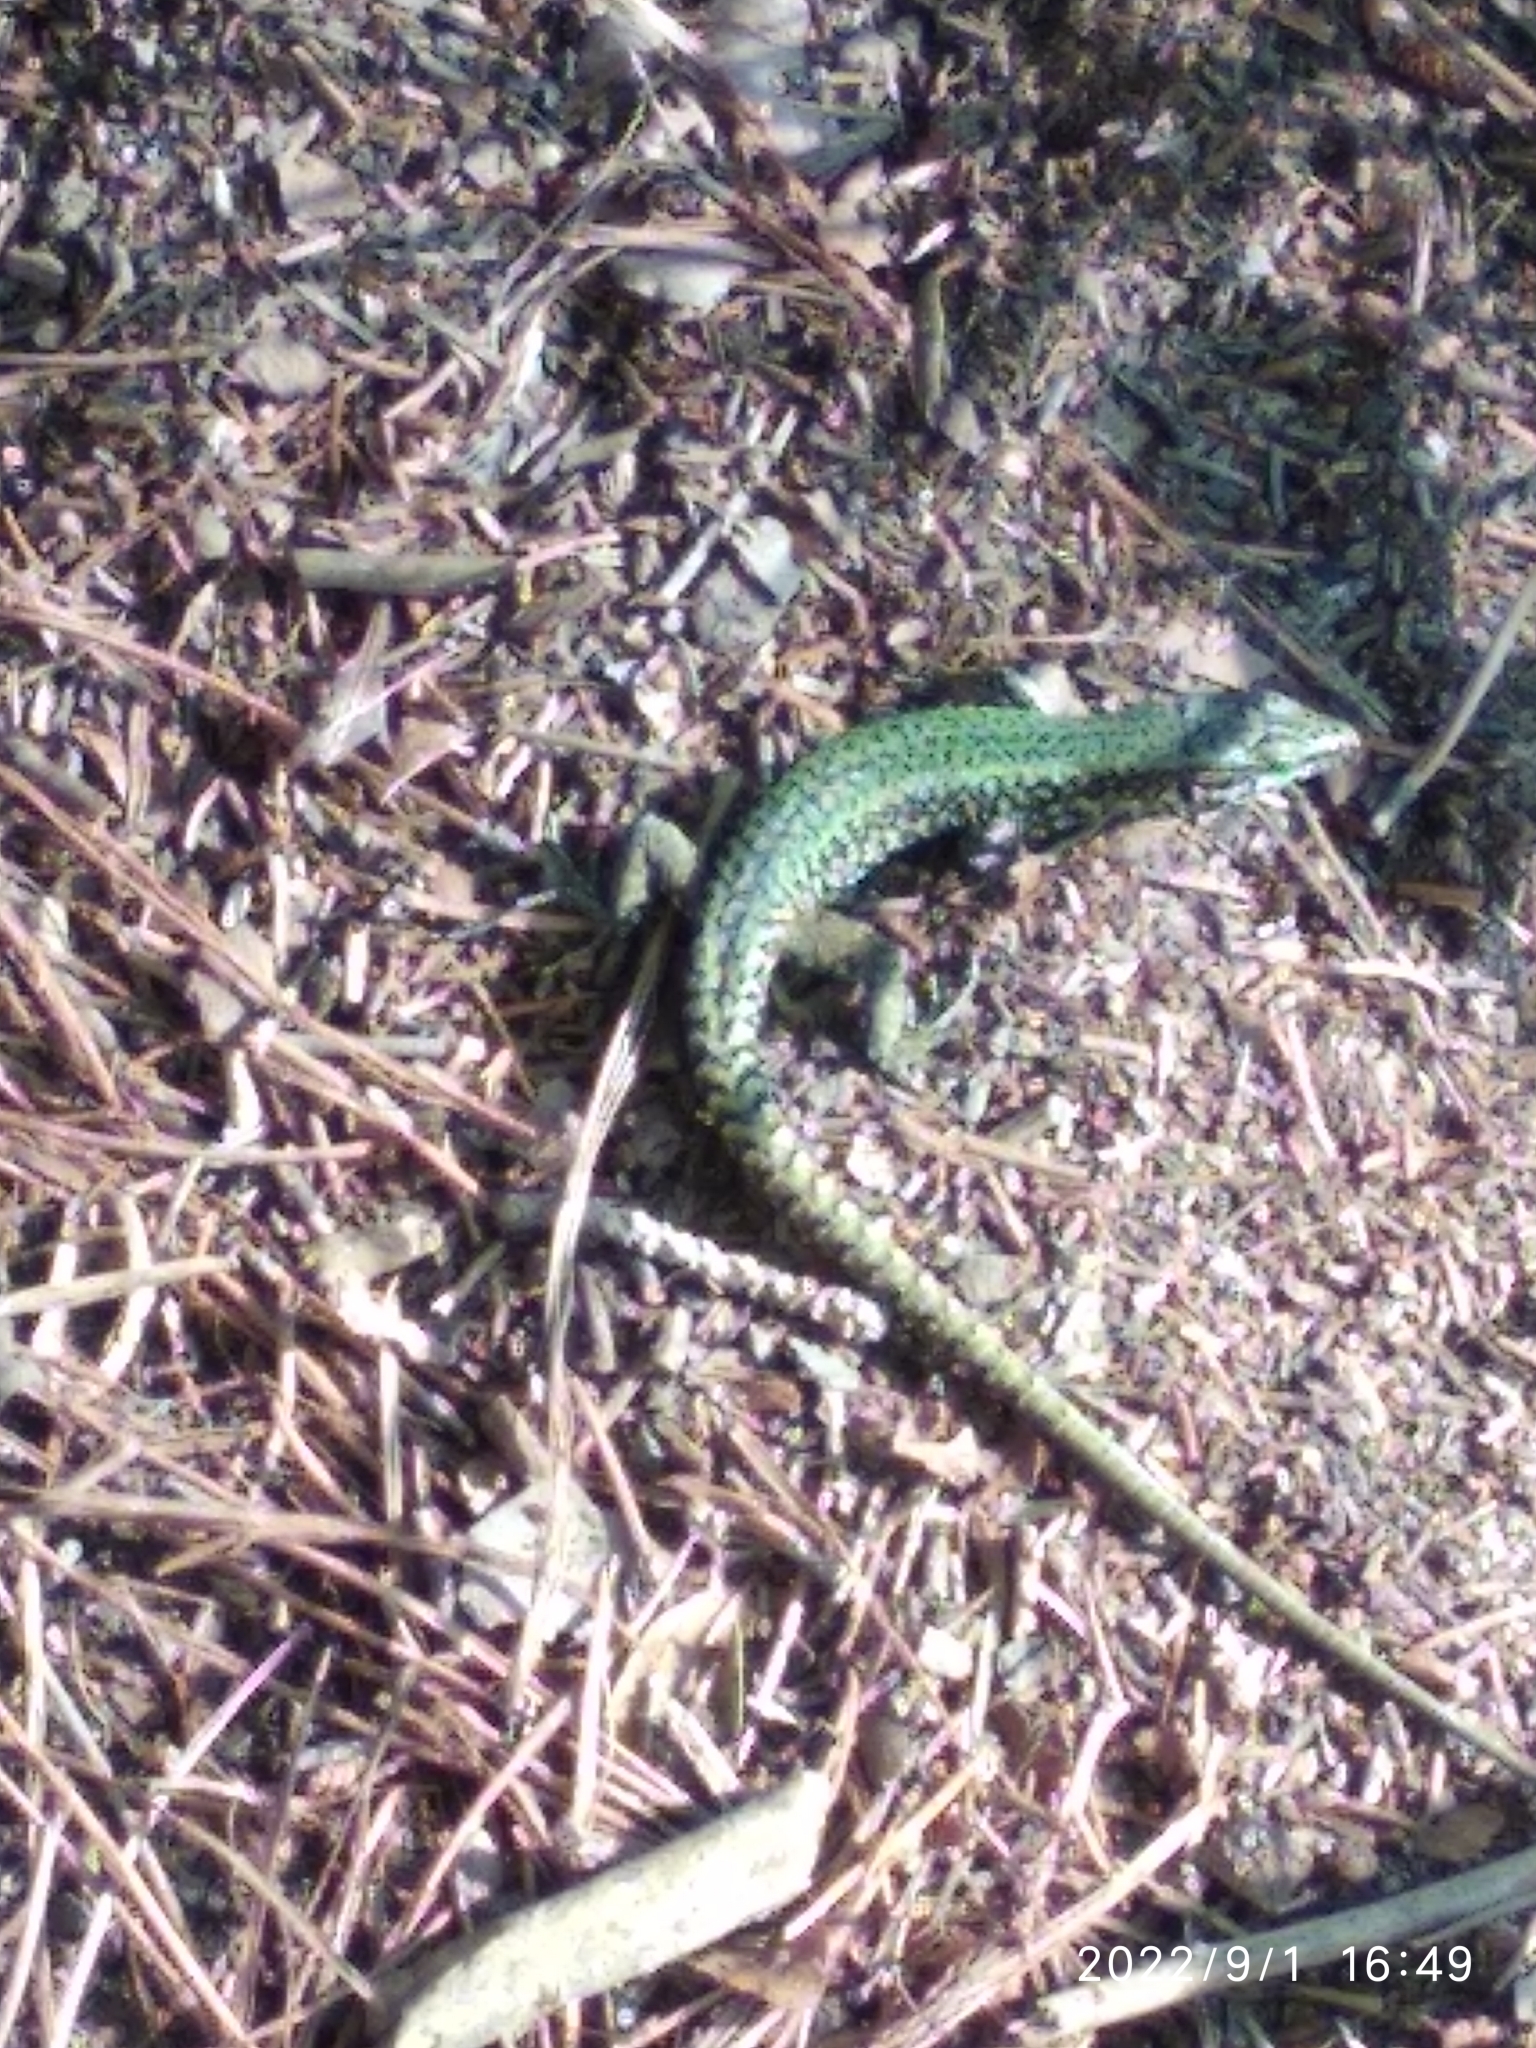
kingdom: Animalia
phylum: Chordata
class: Squamata
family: Lacertidae
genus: Podarcis
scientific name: Podarcis muralis
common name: Common wall lizard
